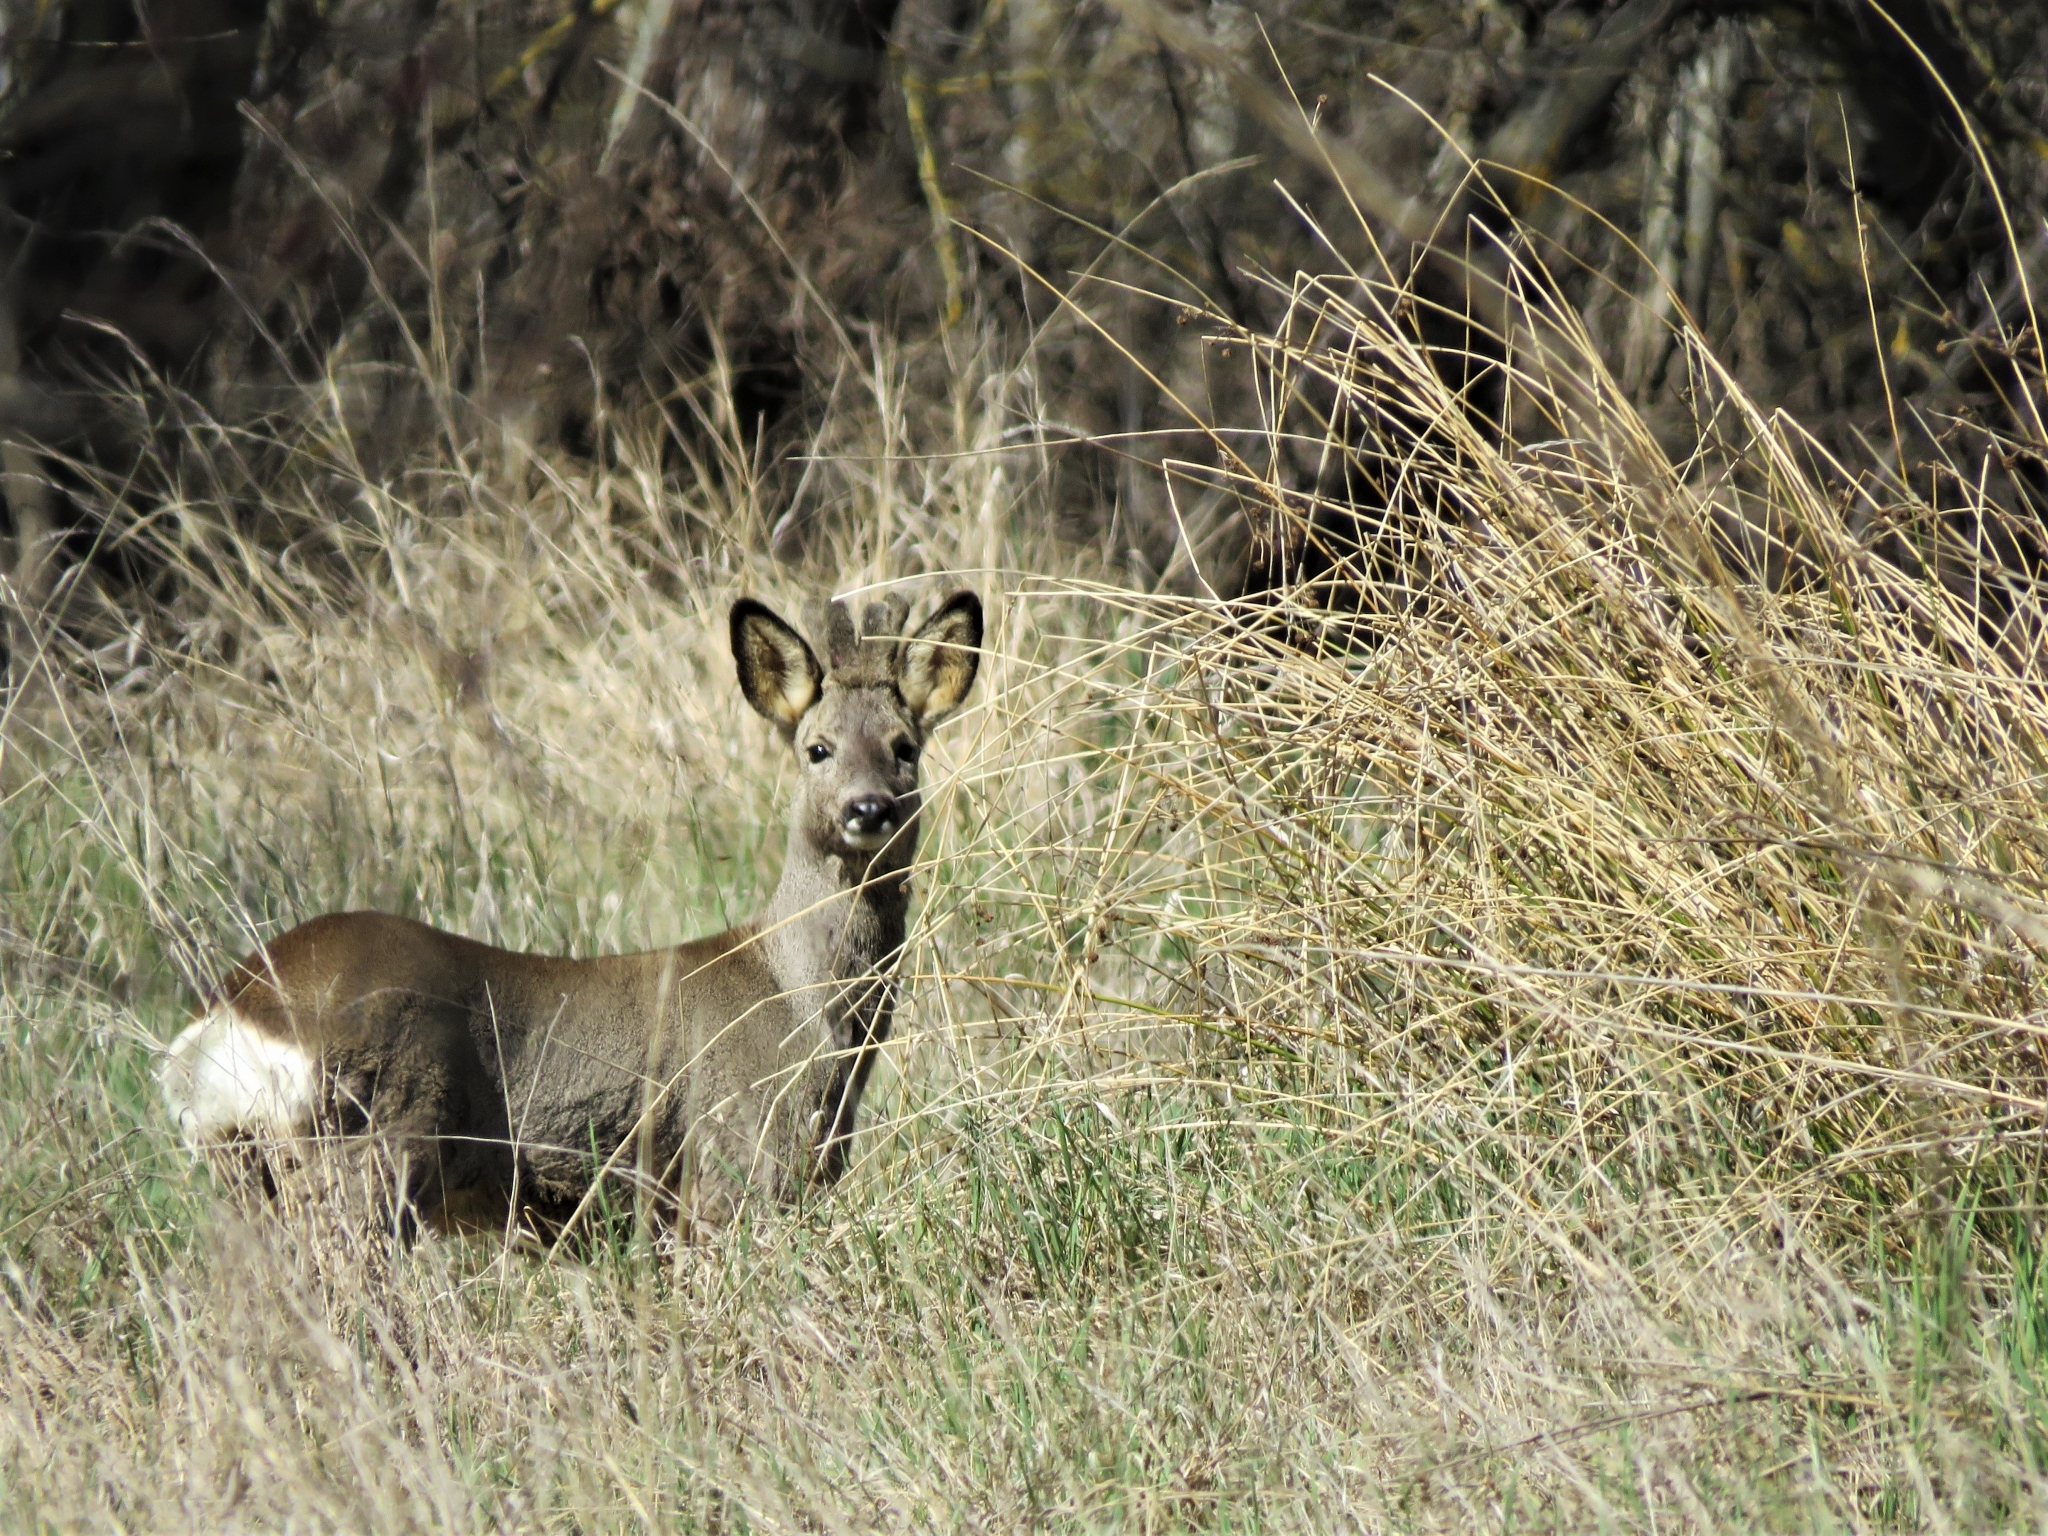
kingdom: Animalia
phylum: Chordata
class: Mammalia
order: Artiodactyla
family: Cervidae
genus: Capreolus
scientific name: Capreolus capreolus
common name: Western roe deer
